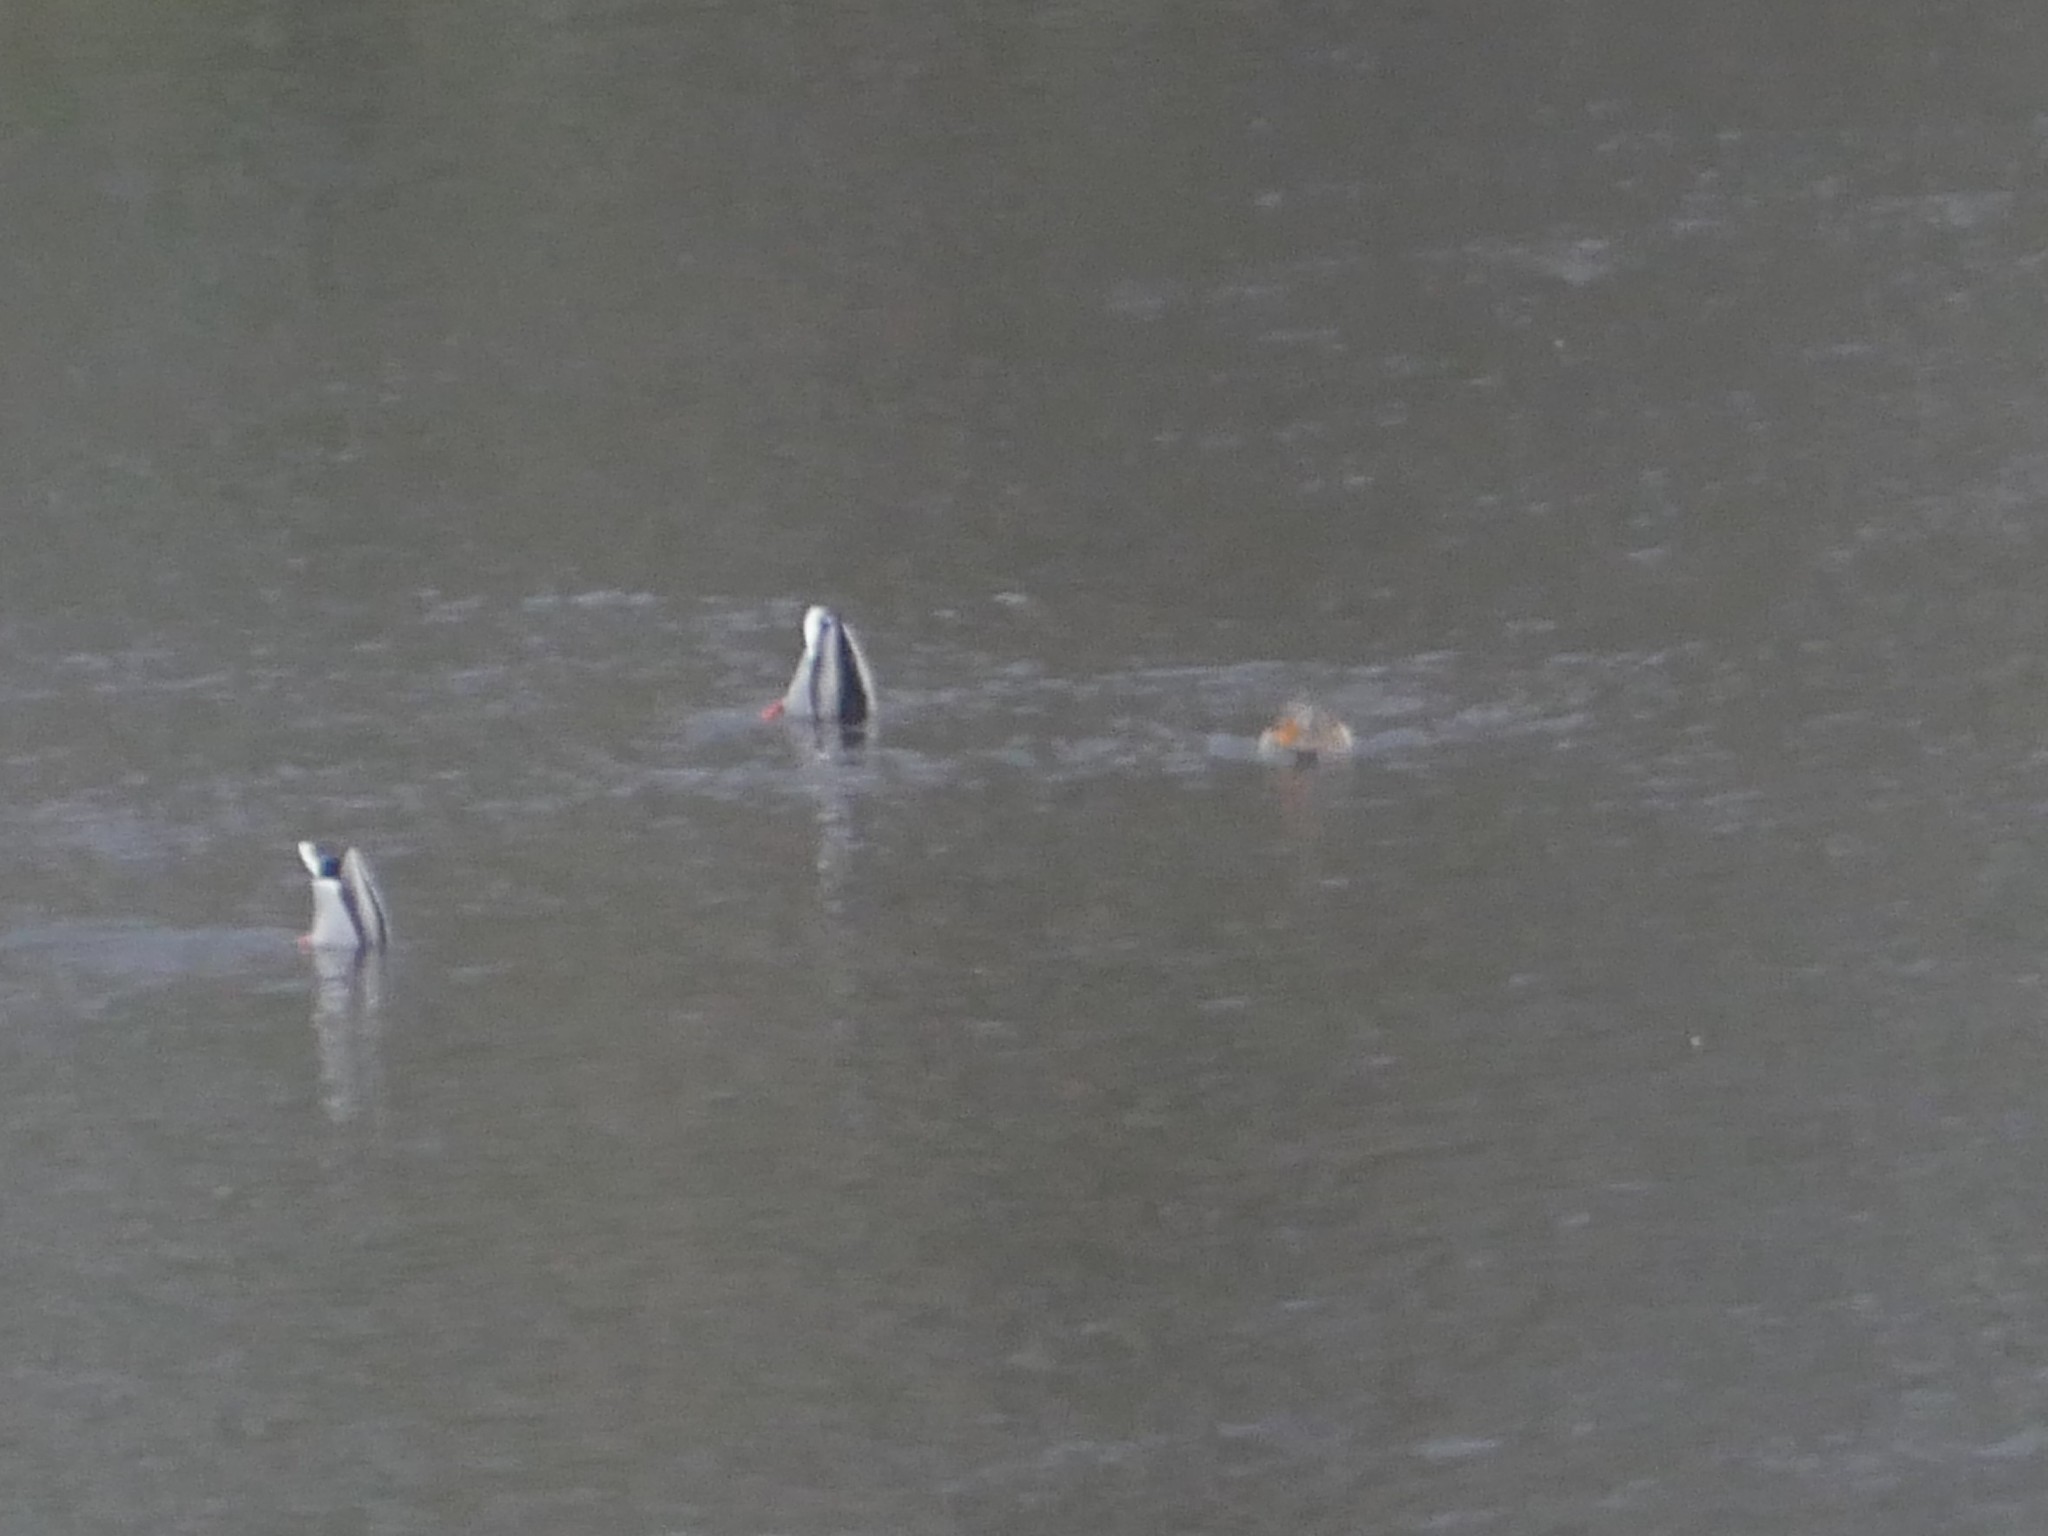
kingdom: Animalia
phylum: Chordata
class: Aves
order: Anseriformes
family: Anatidae
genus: Anas
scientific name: Anas platyrhynchos
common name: Mallard
